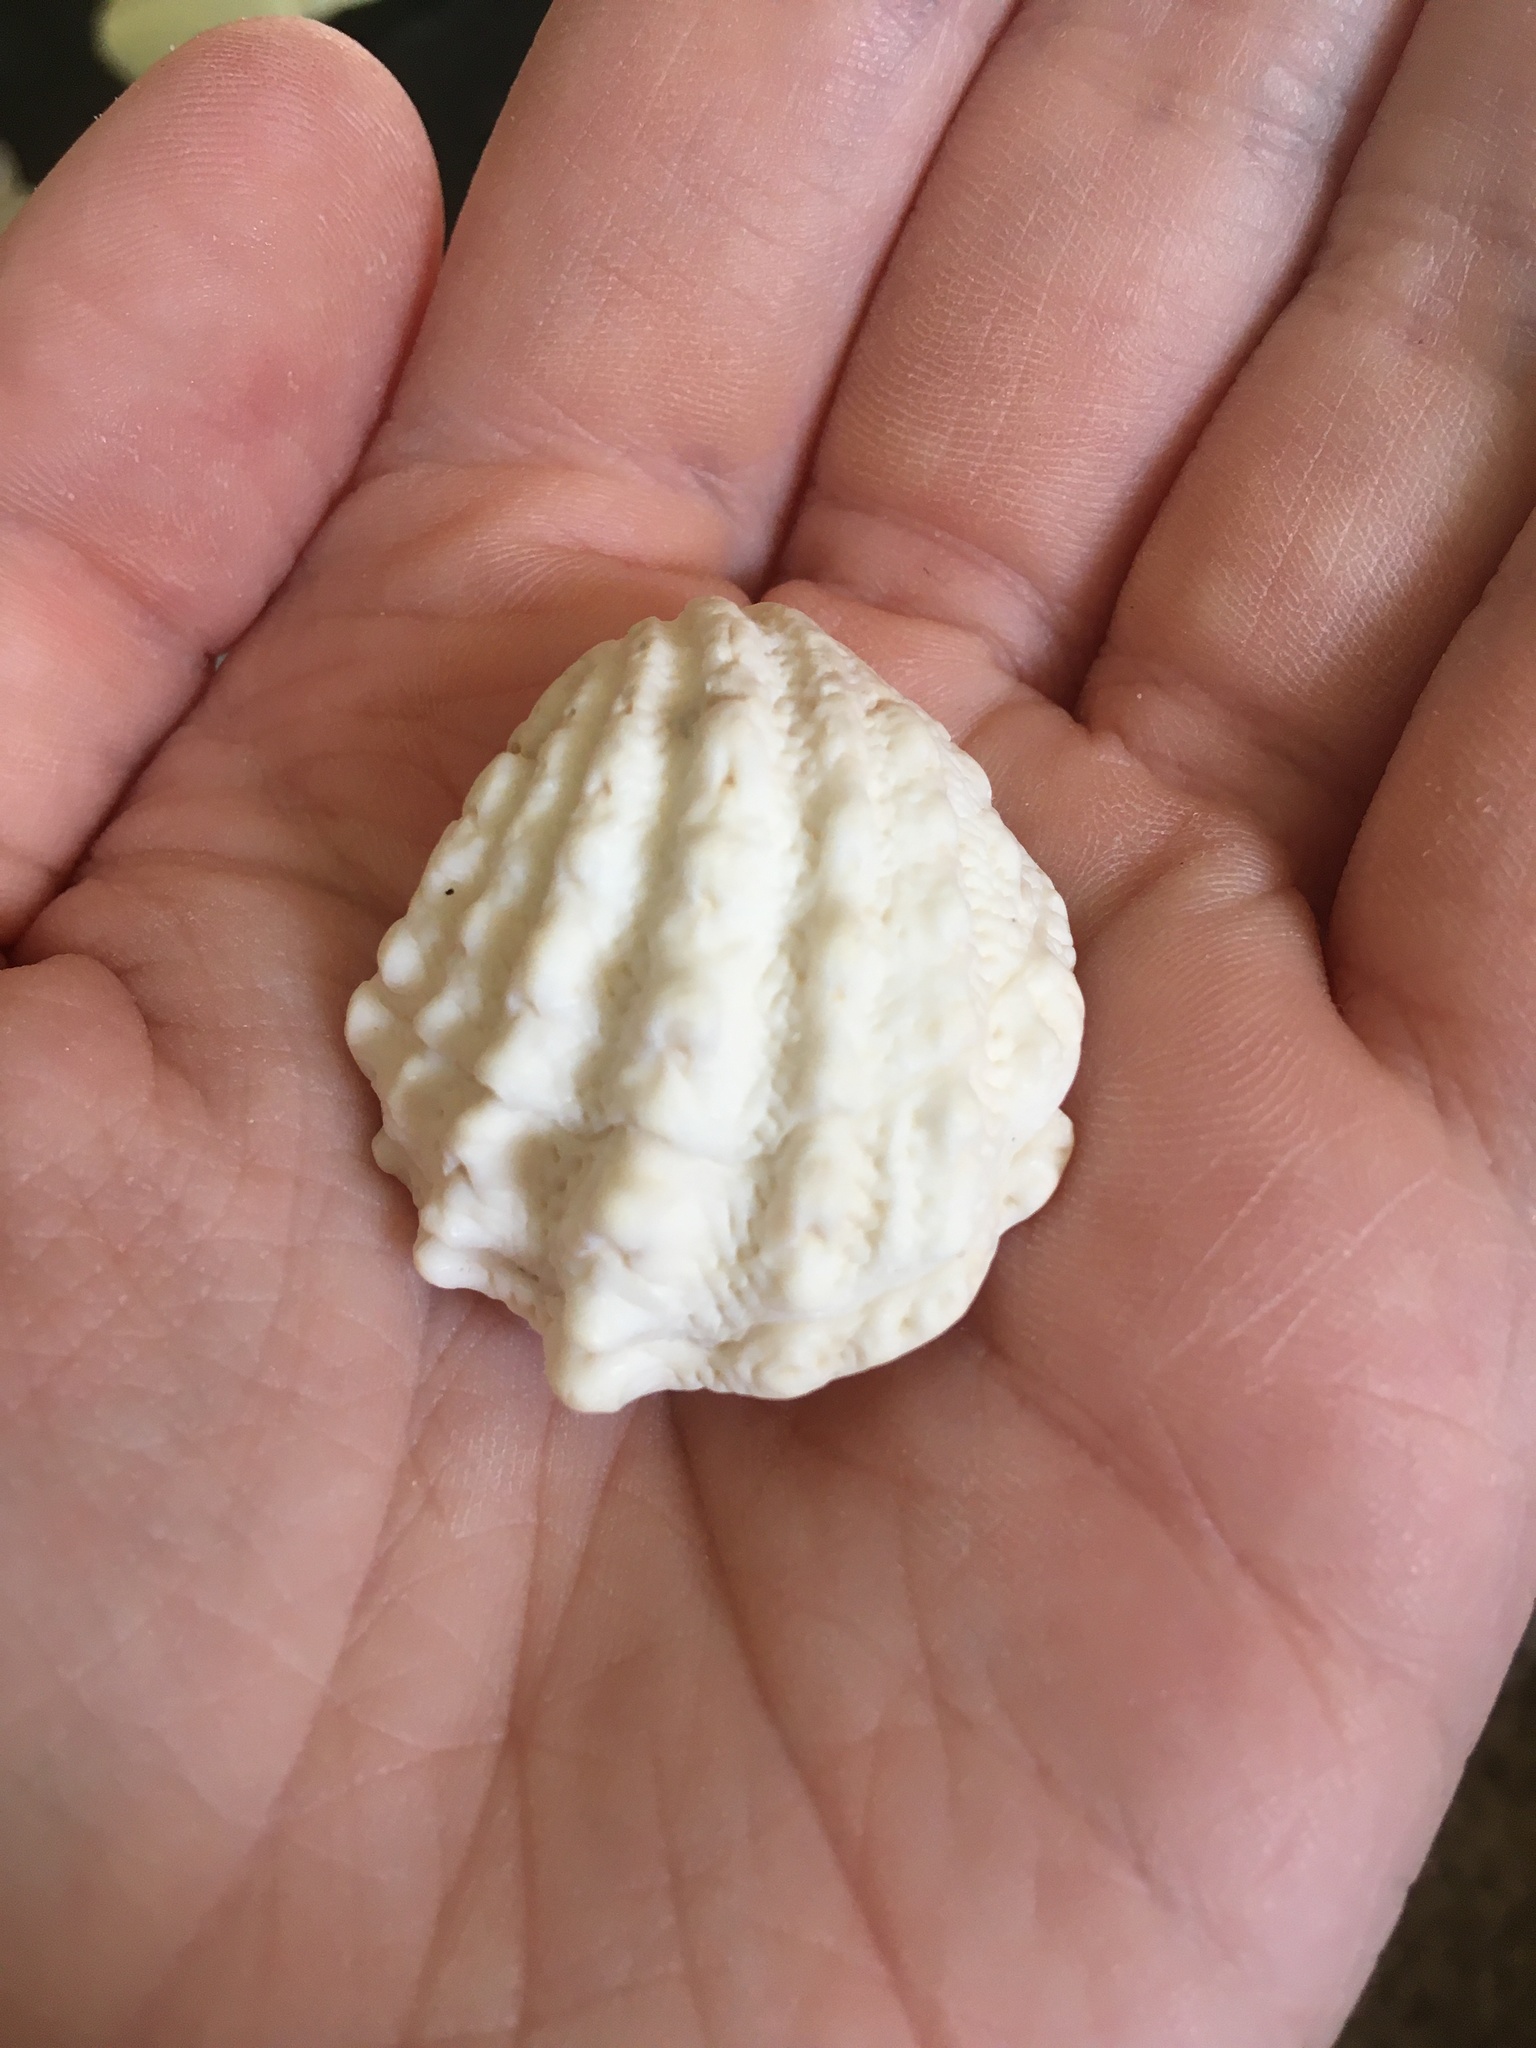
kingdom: Animalia
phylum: Mollusca
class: Bivalvia
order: Venerida
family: Chamidae
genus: Arcinella
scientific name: Arcinella cornuta
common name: Florida spiny jewel box
